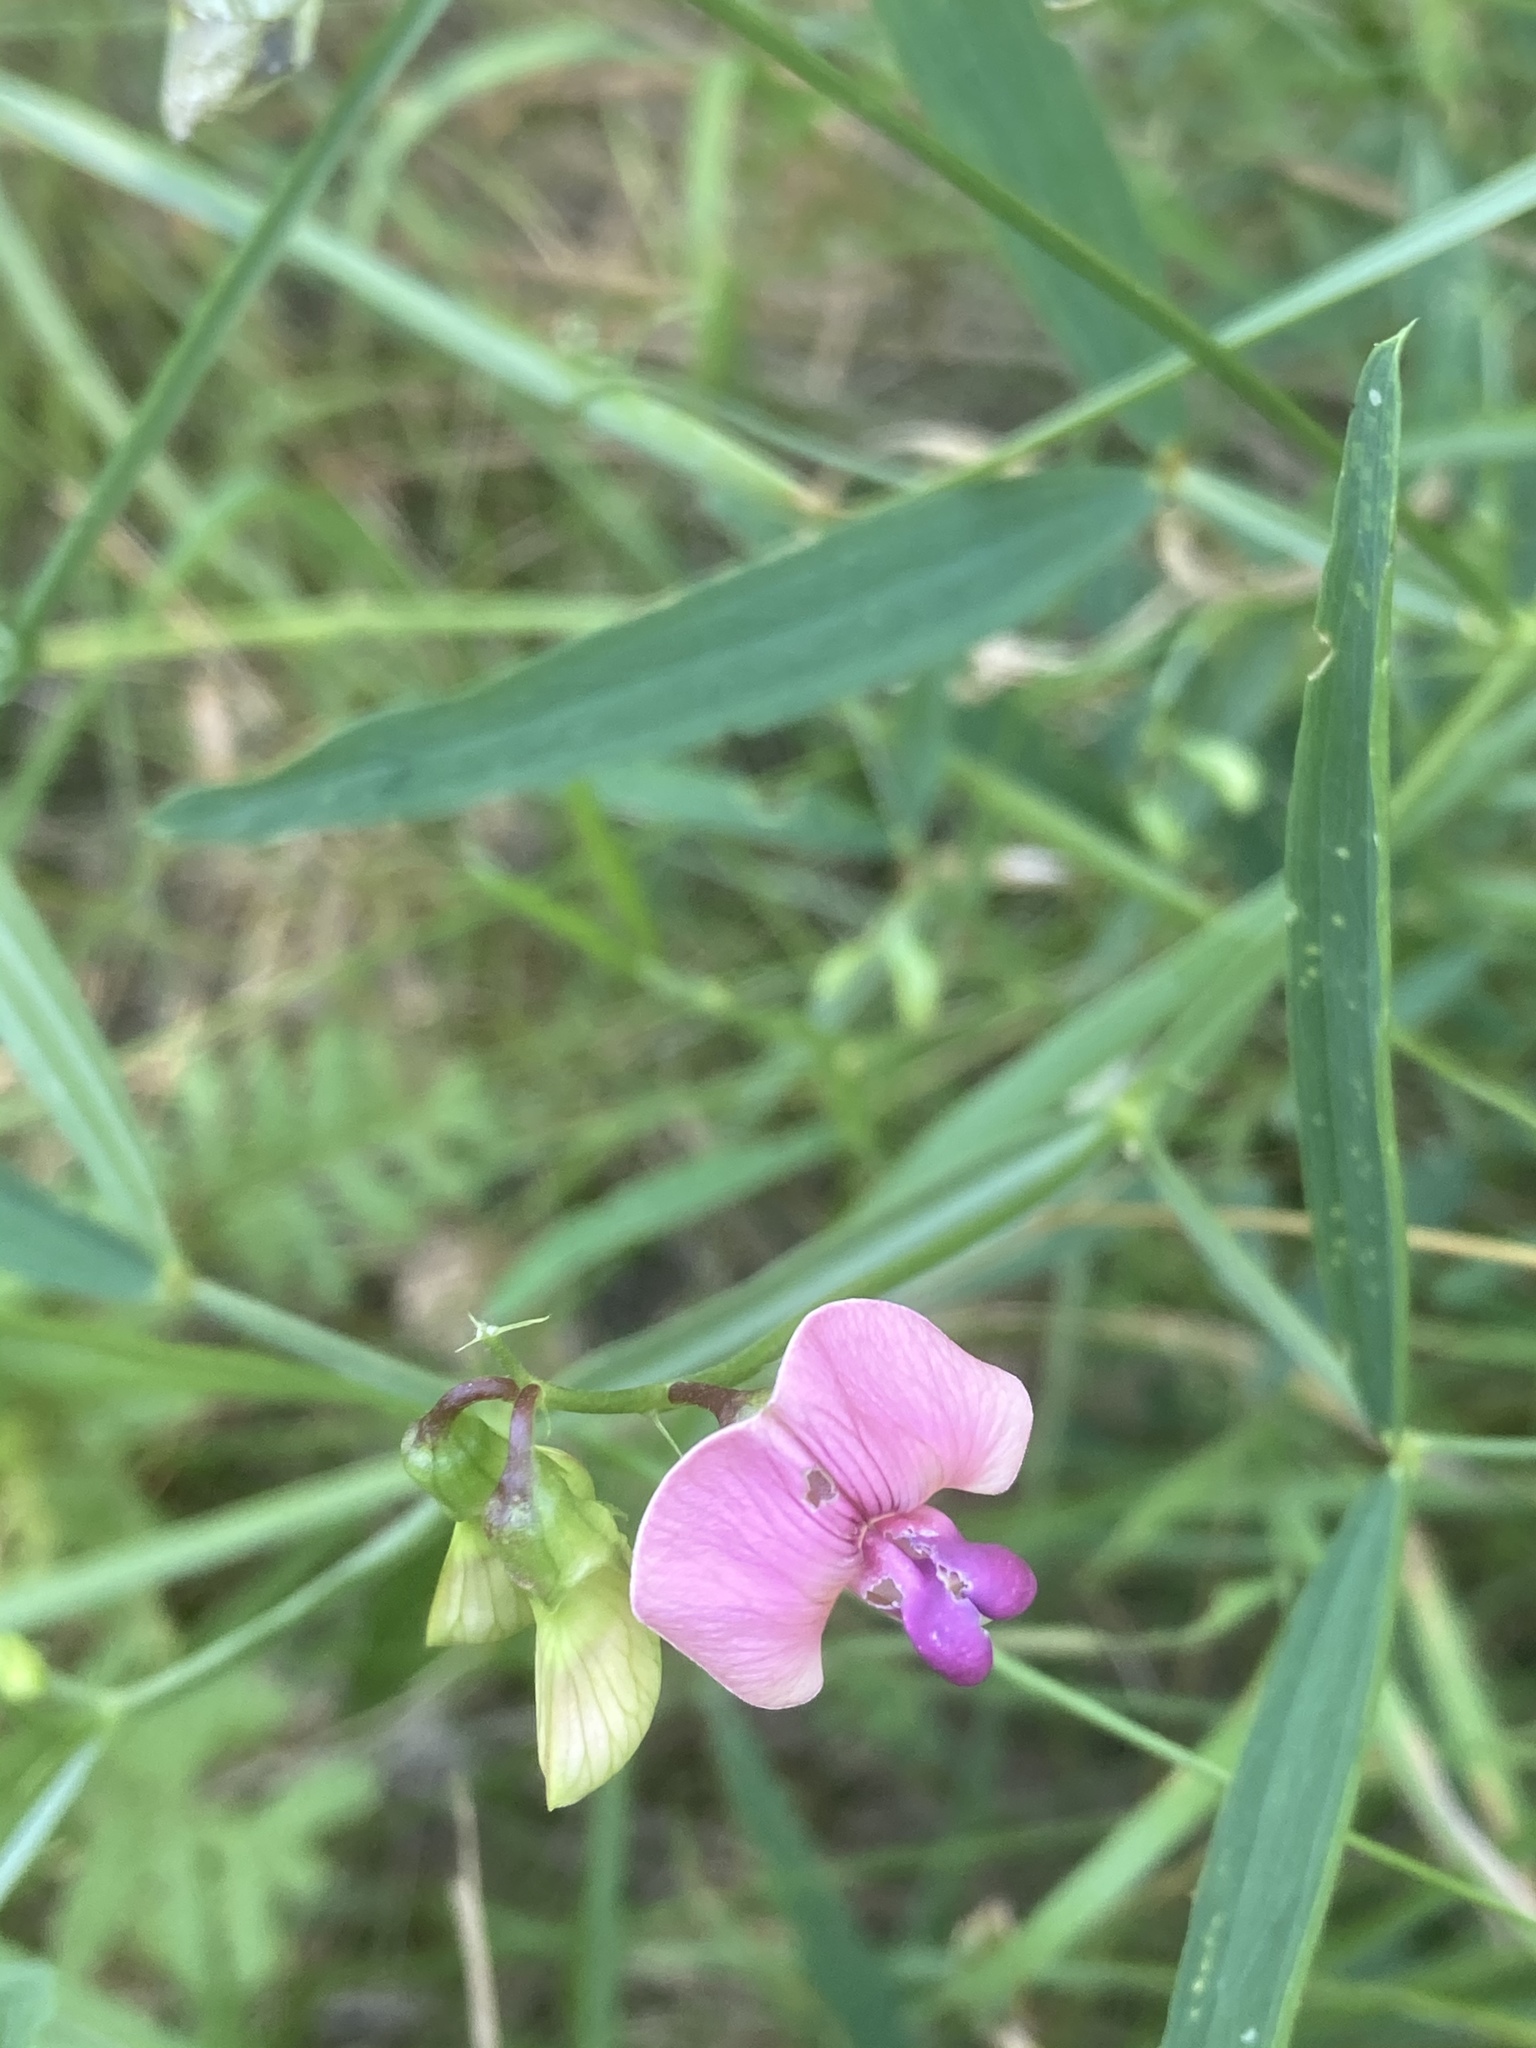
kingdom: Plantae
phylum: Tracheophyta
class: Magnoliopsida
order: Fabales
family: Fabaceae
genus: Lathyrus
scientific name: Lathyrus sylvestris
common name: Flat pea
